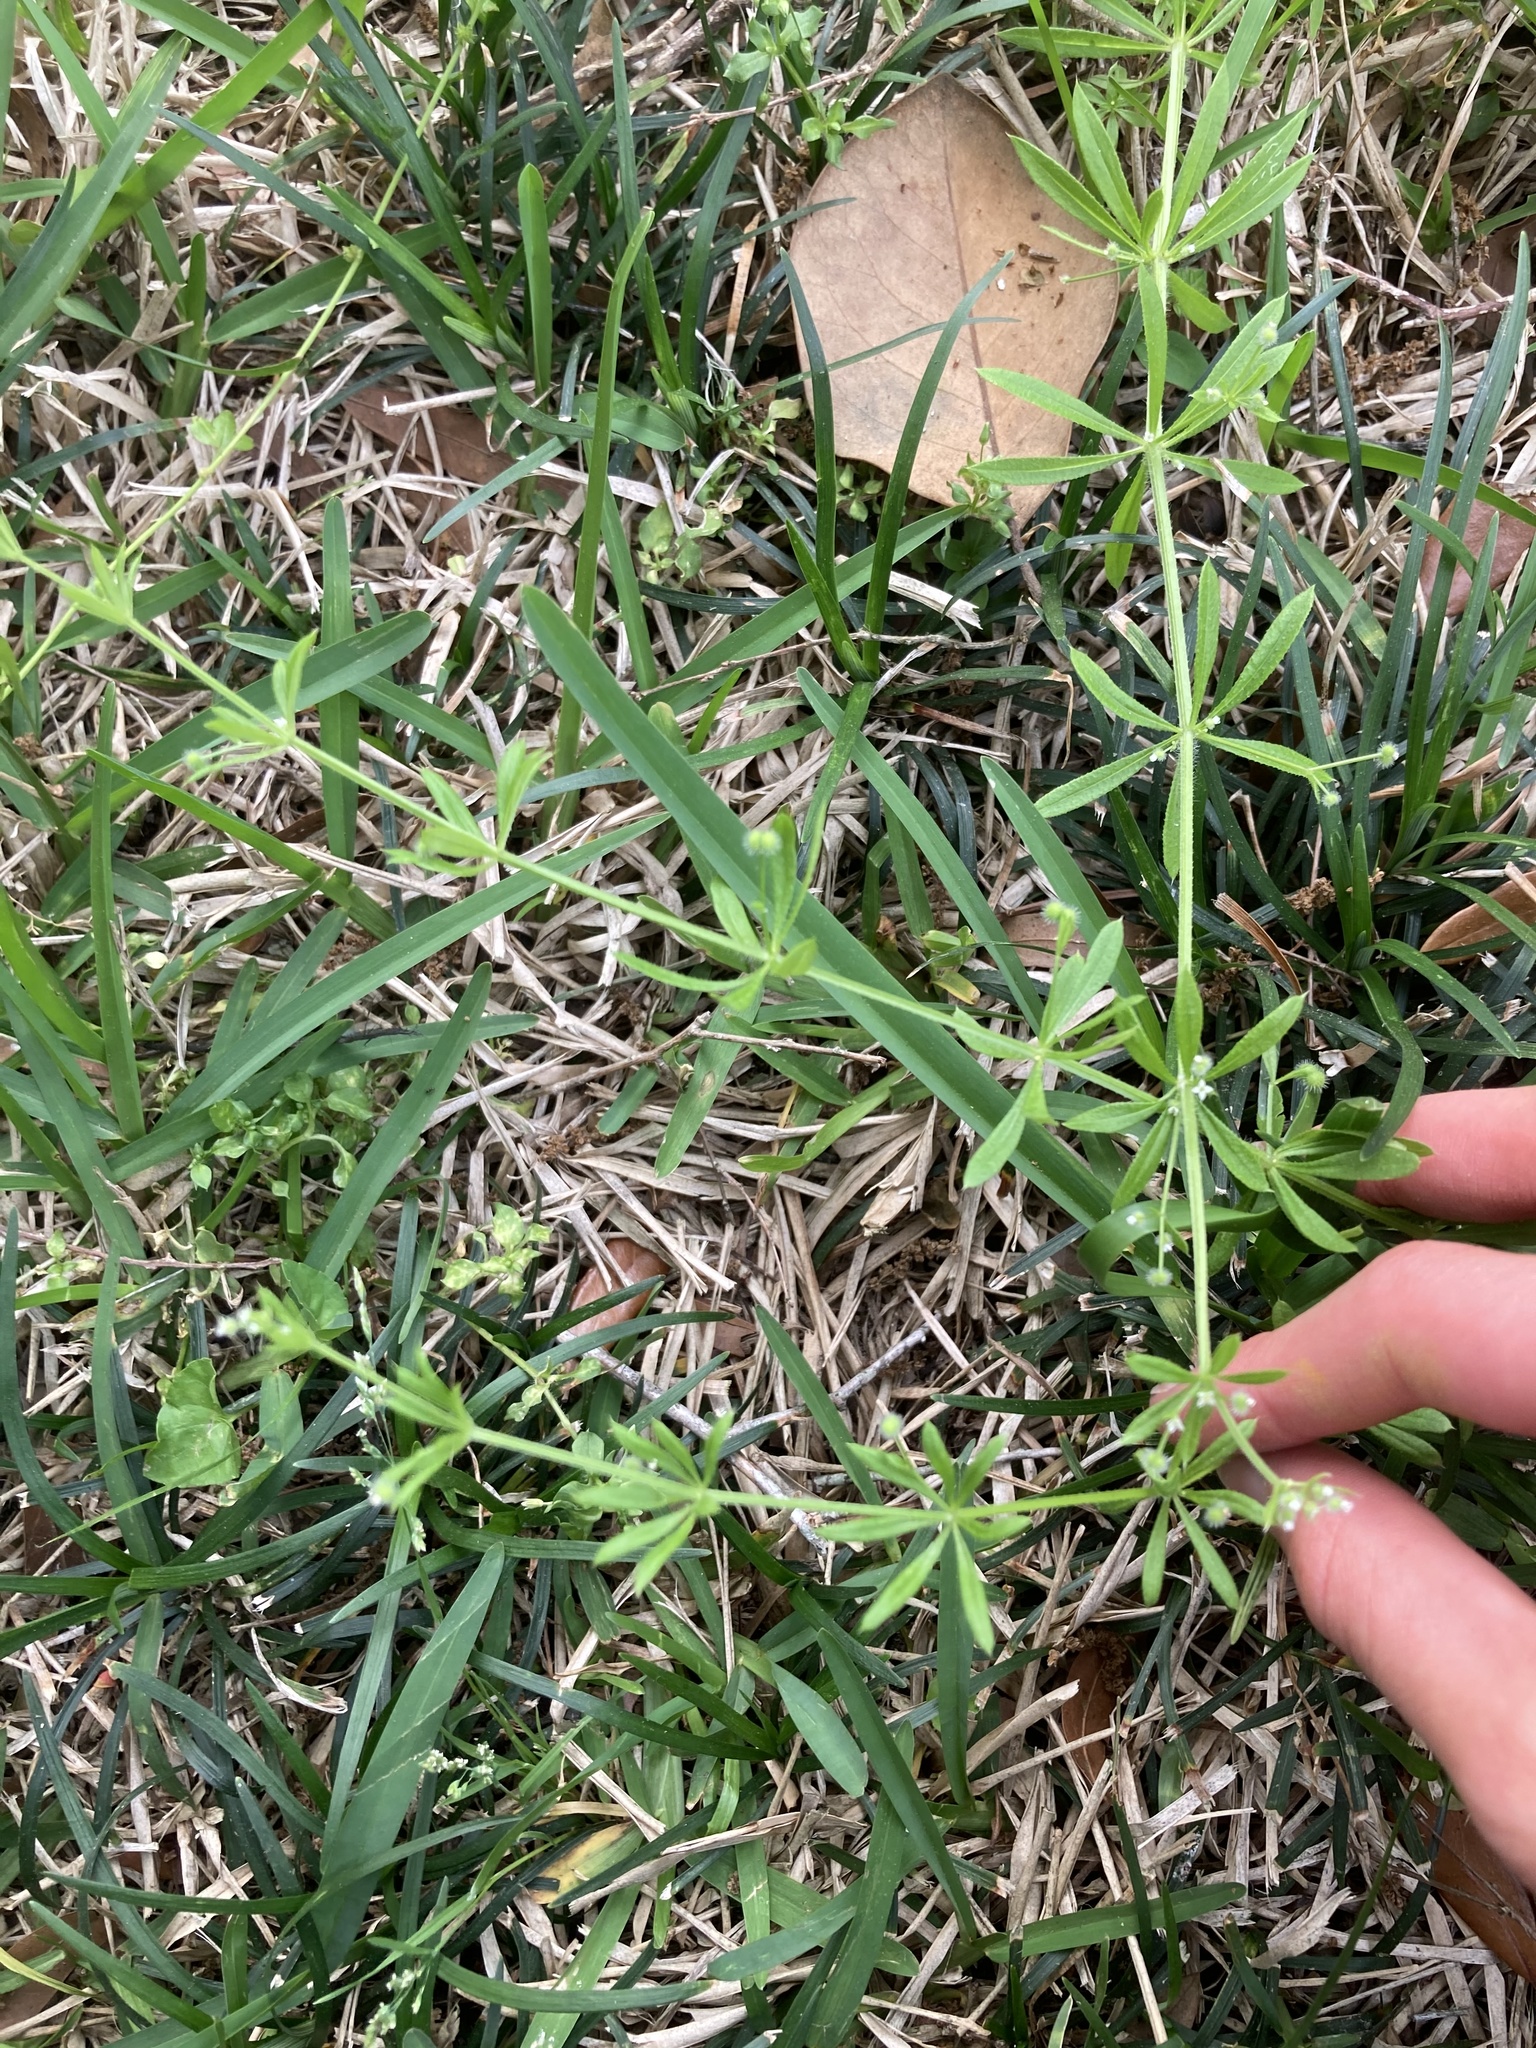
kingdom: Plantae
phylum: Tracheophyta
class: Magnoliopsida
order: Gentianales
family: Rubiaceae
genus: Galium
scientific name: Galium aparine
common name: Cleavers
